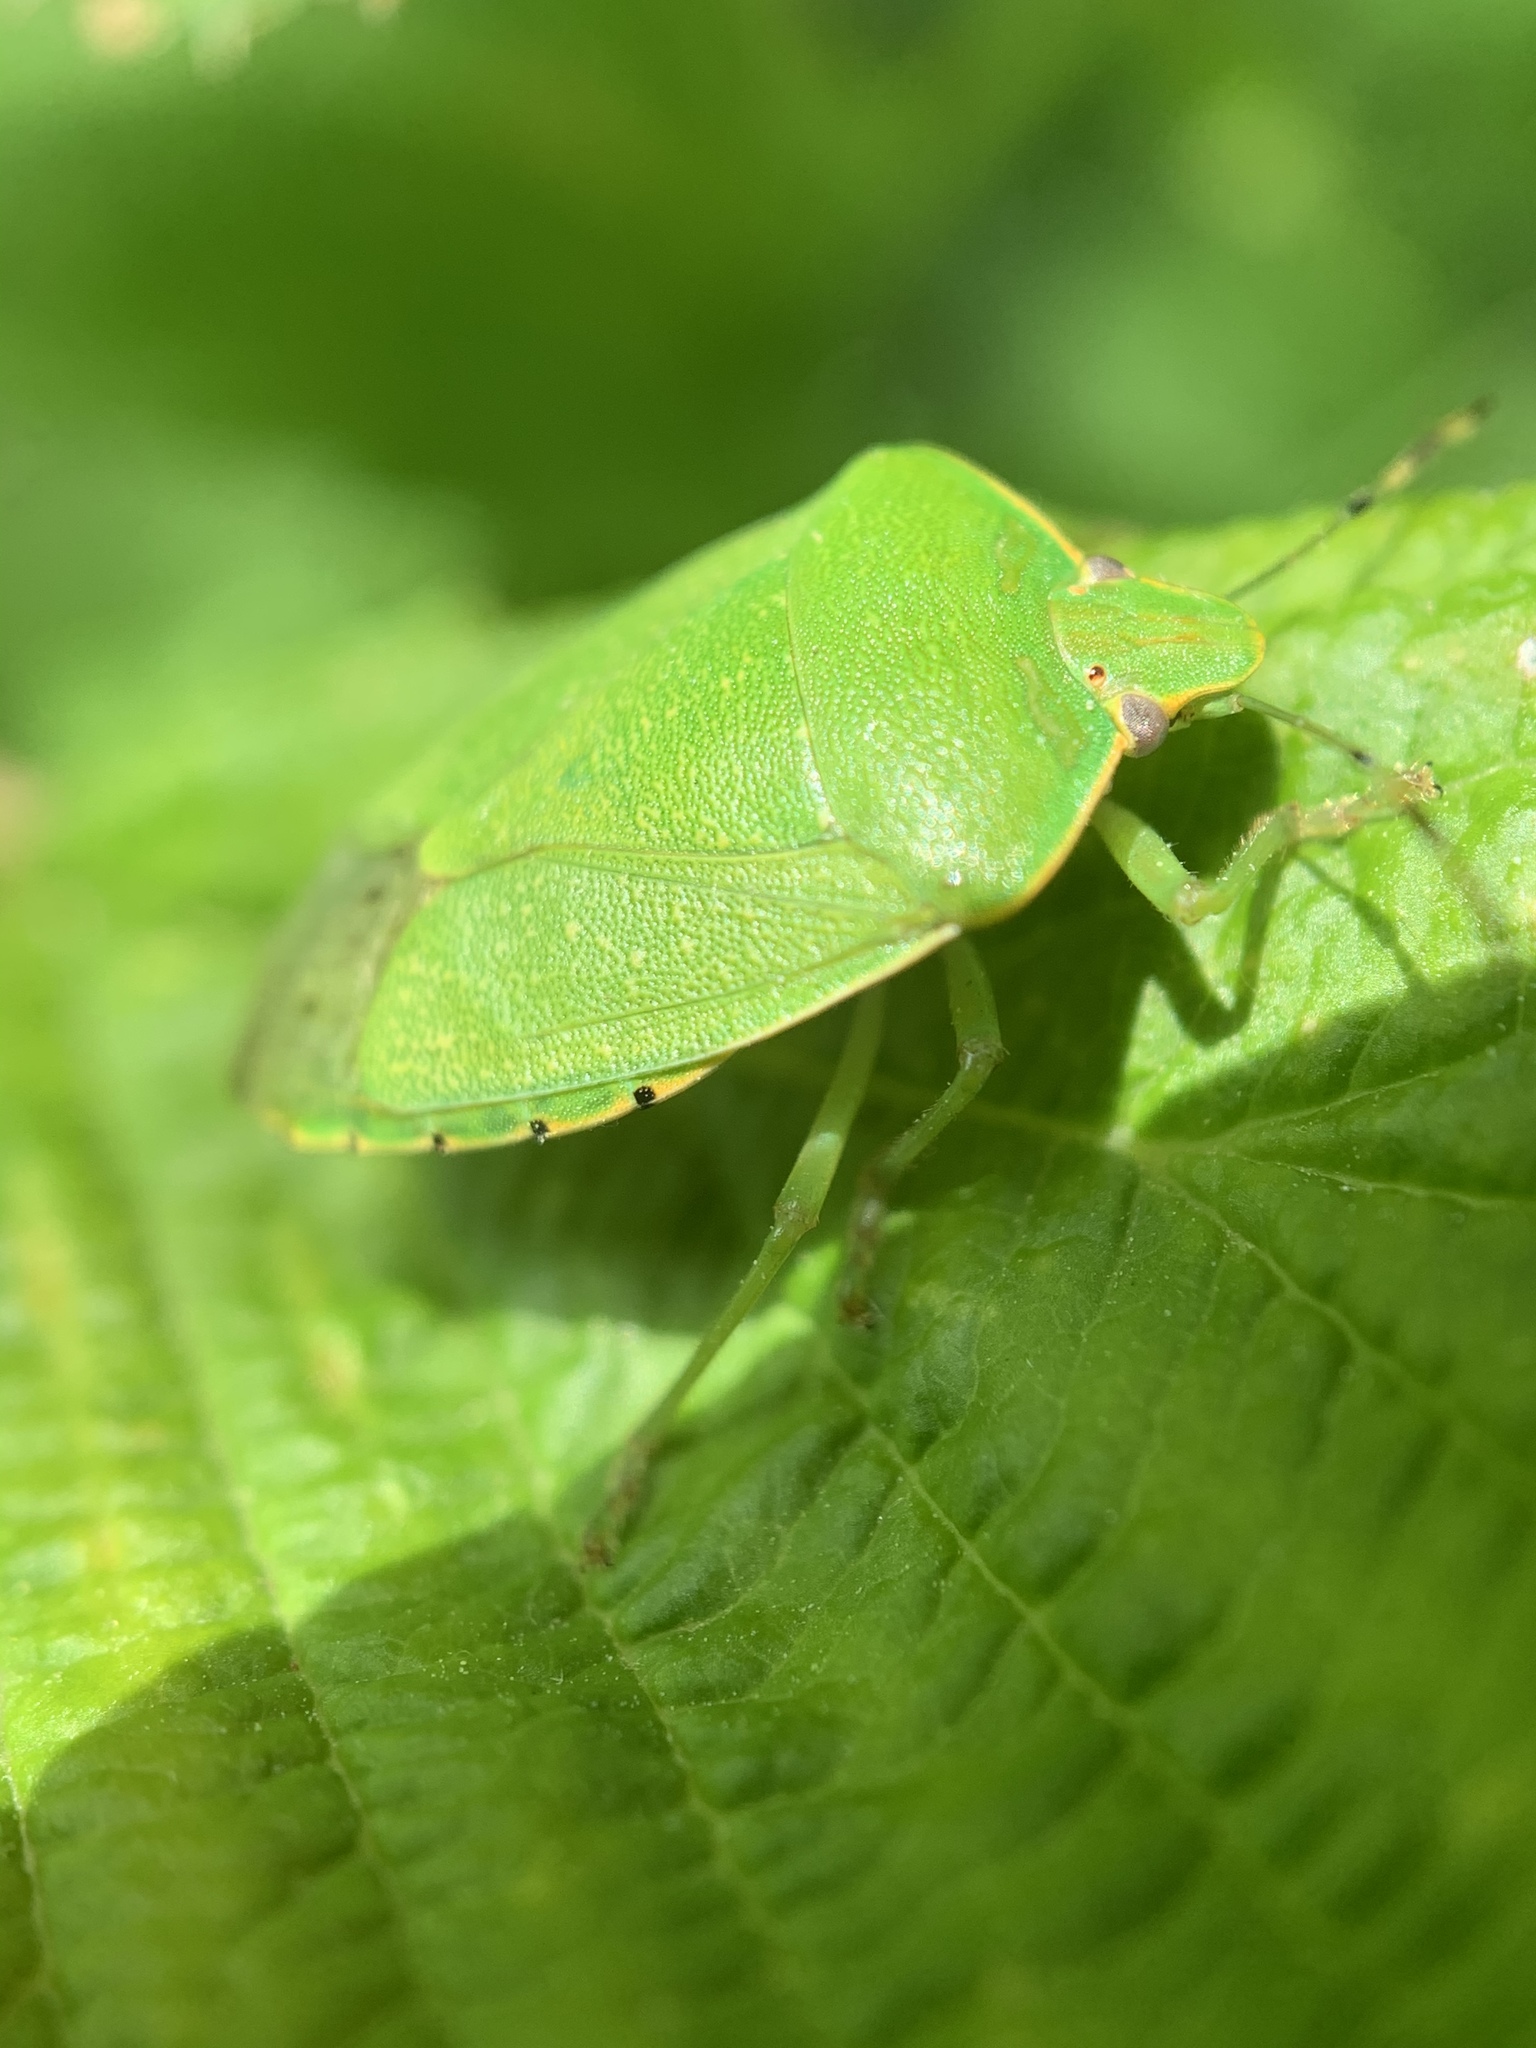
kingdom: Animalia
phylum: Arthropoda
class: Insecta
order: Hemiptera
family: Pentatomidae
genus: Chinavia
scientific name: Chinavia hilaris
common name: Green stink bug
